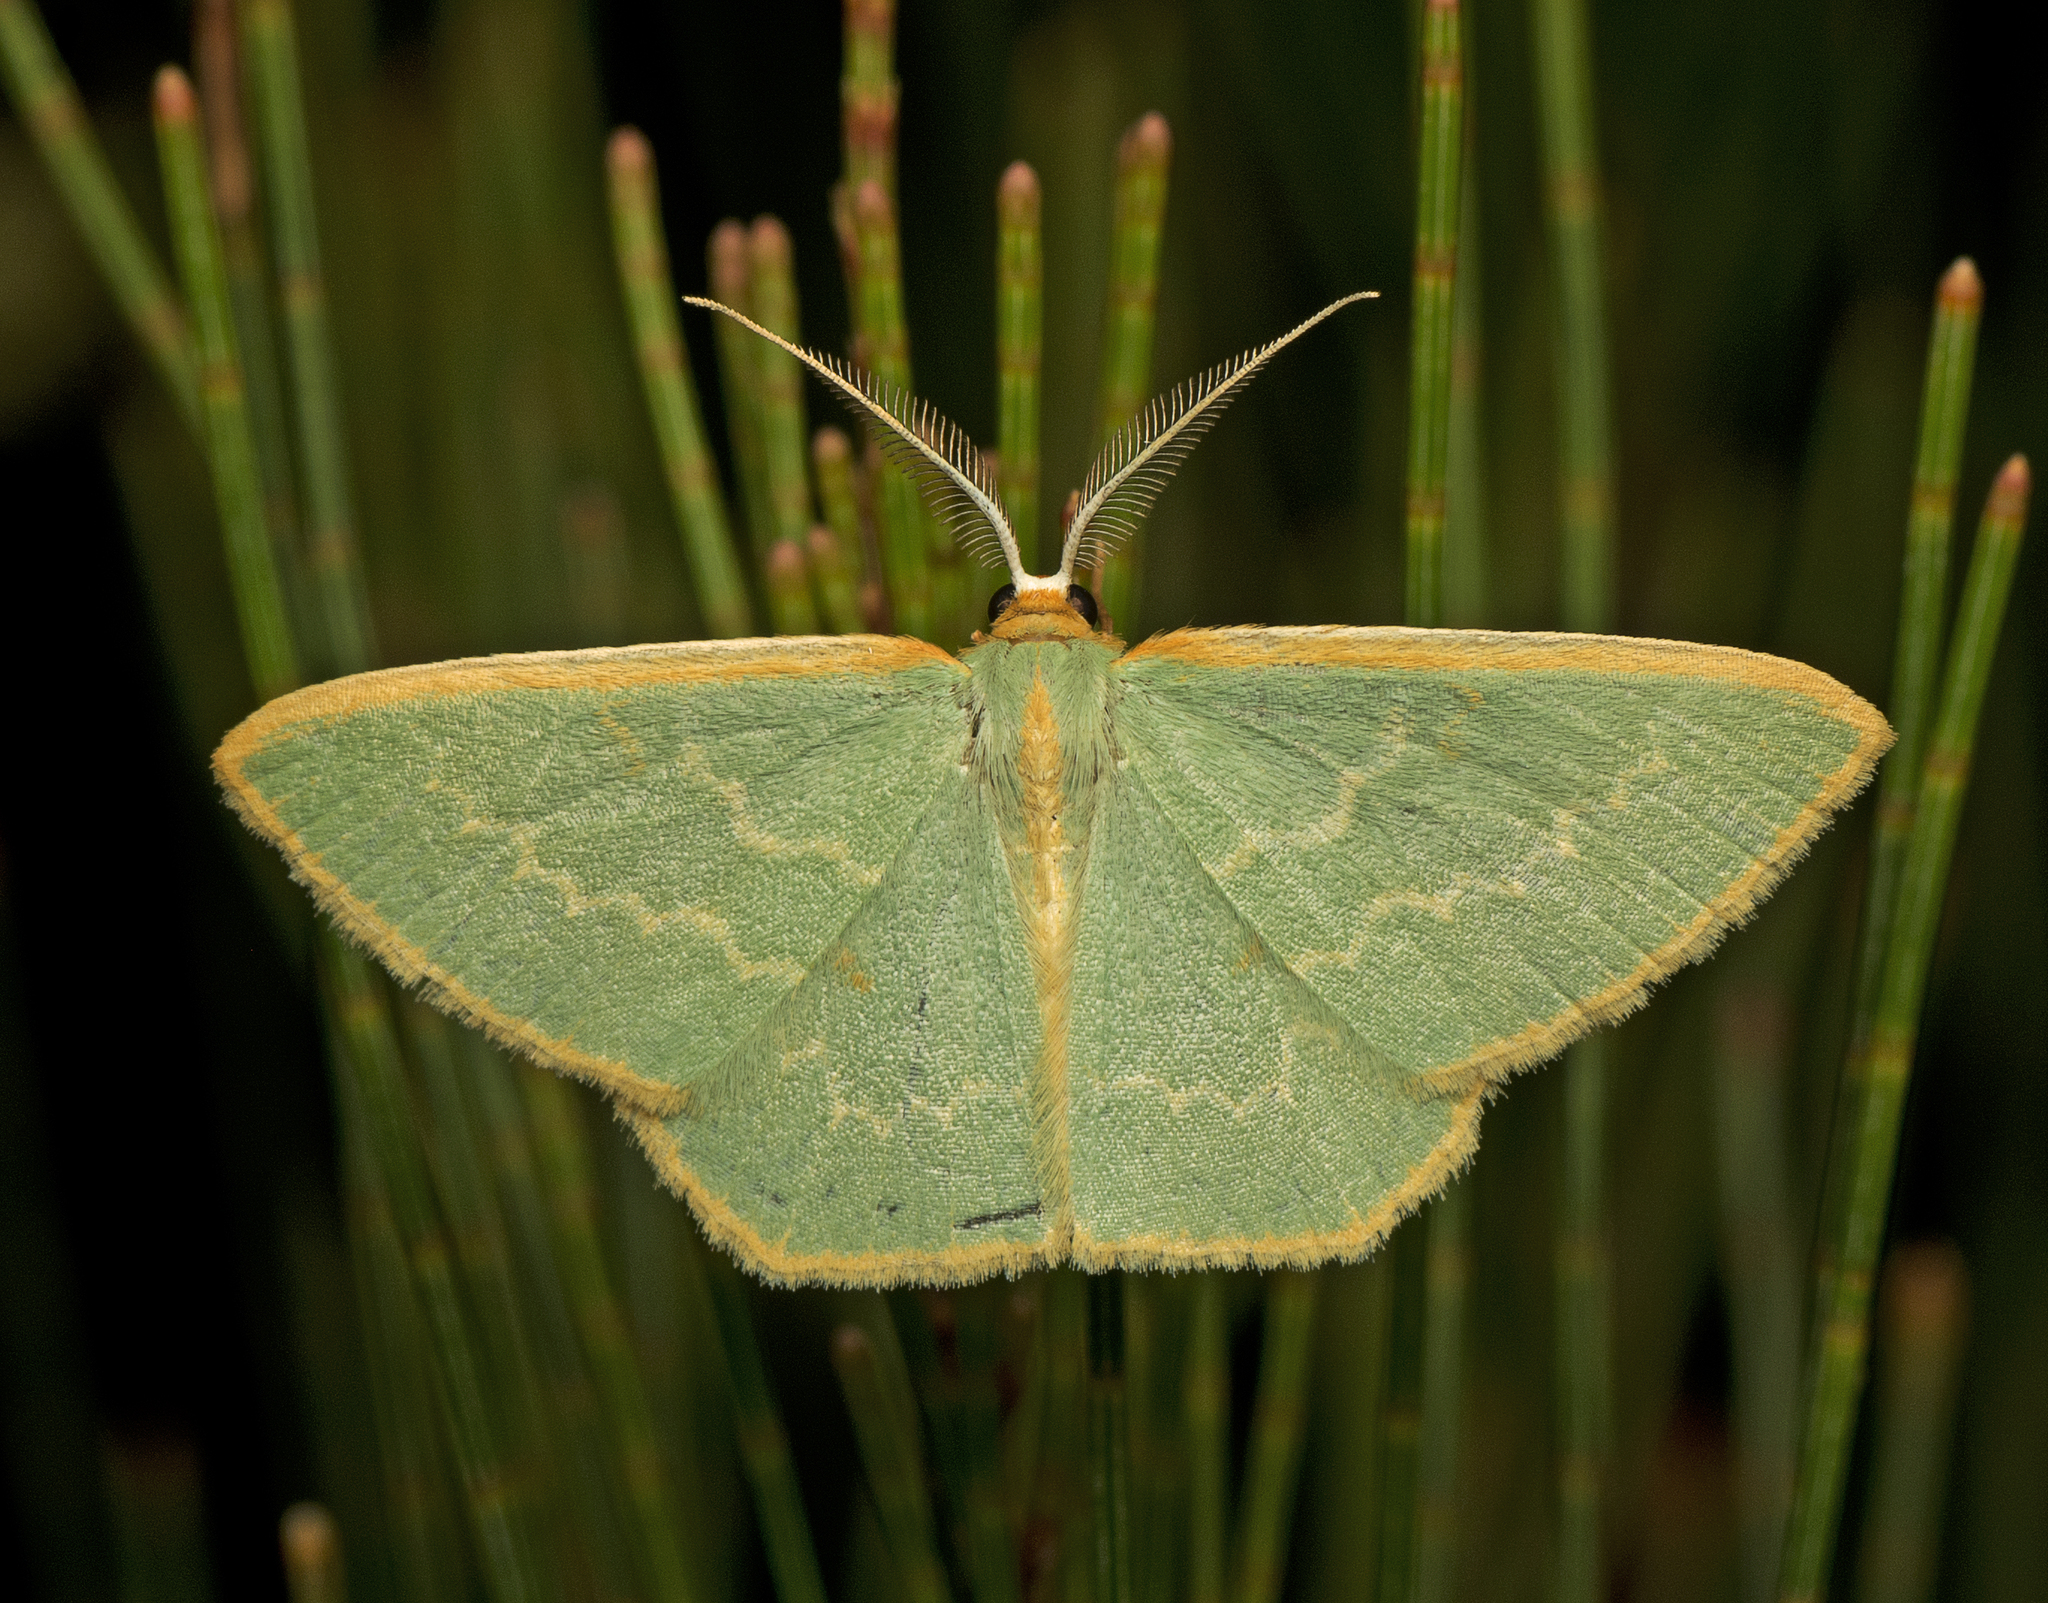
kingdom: Animalia
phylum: Arthropoda
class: Insecta
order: Lepidoptera
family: Geometridae
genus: Chlorocoma
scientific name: Chlorocoma periphracta
